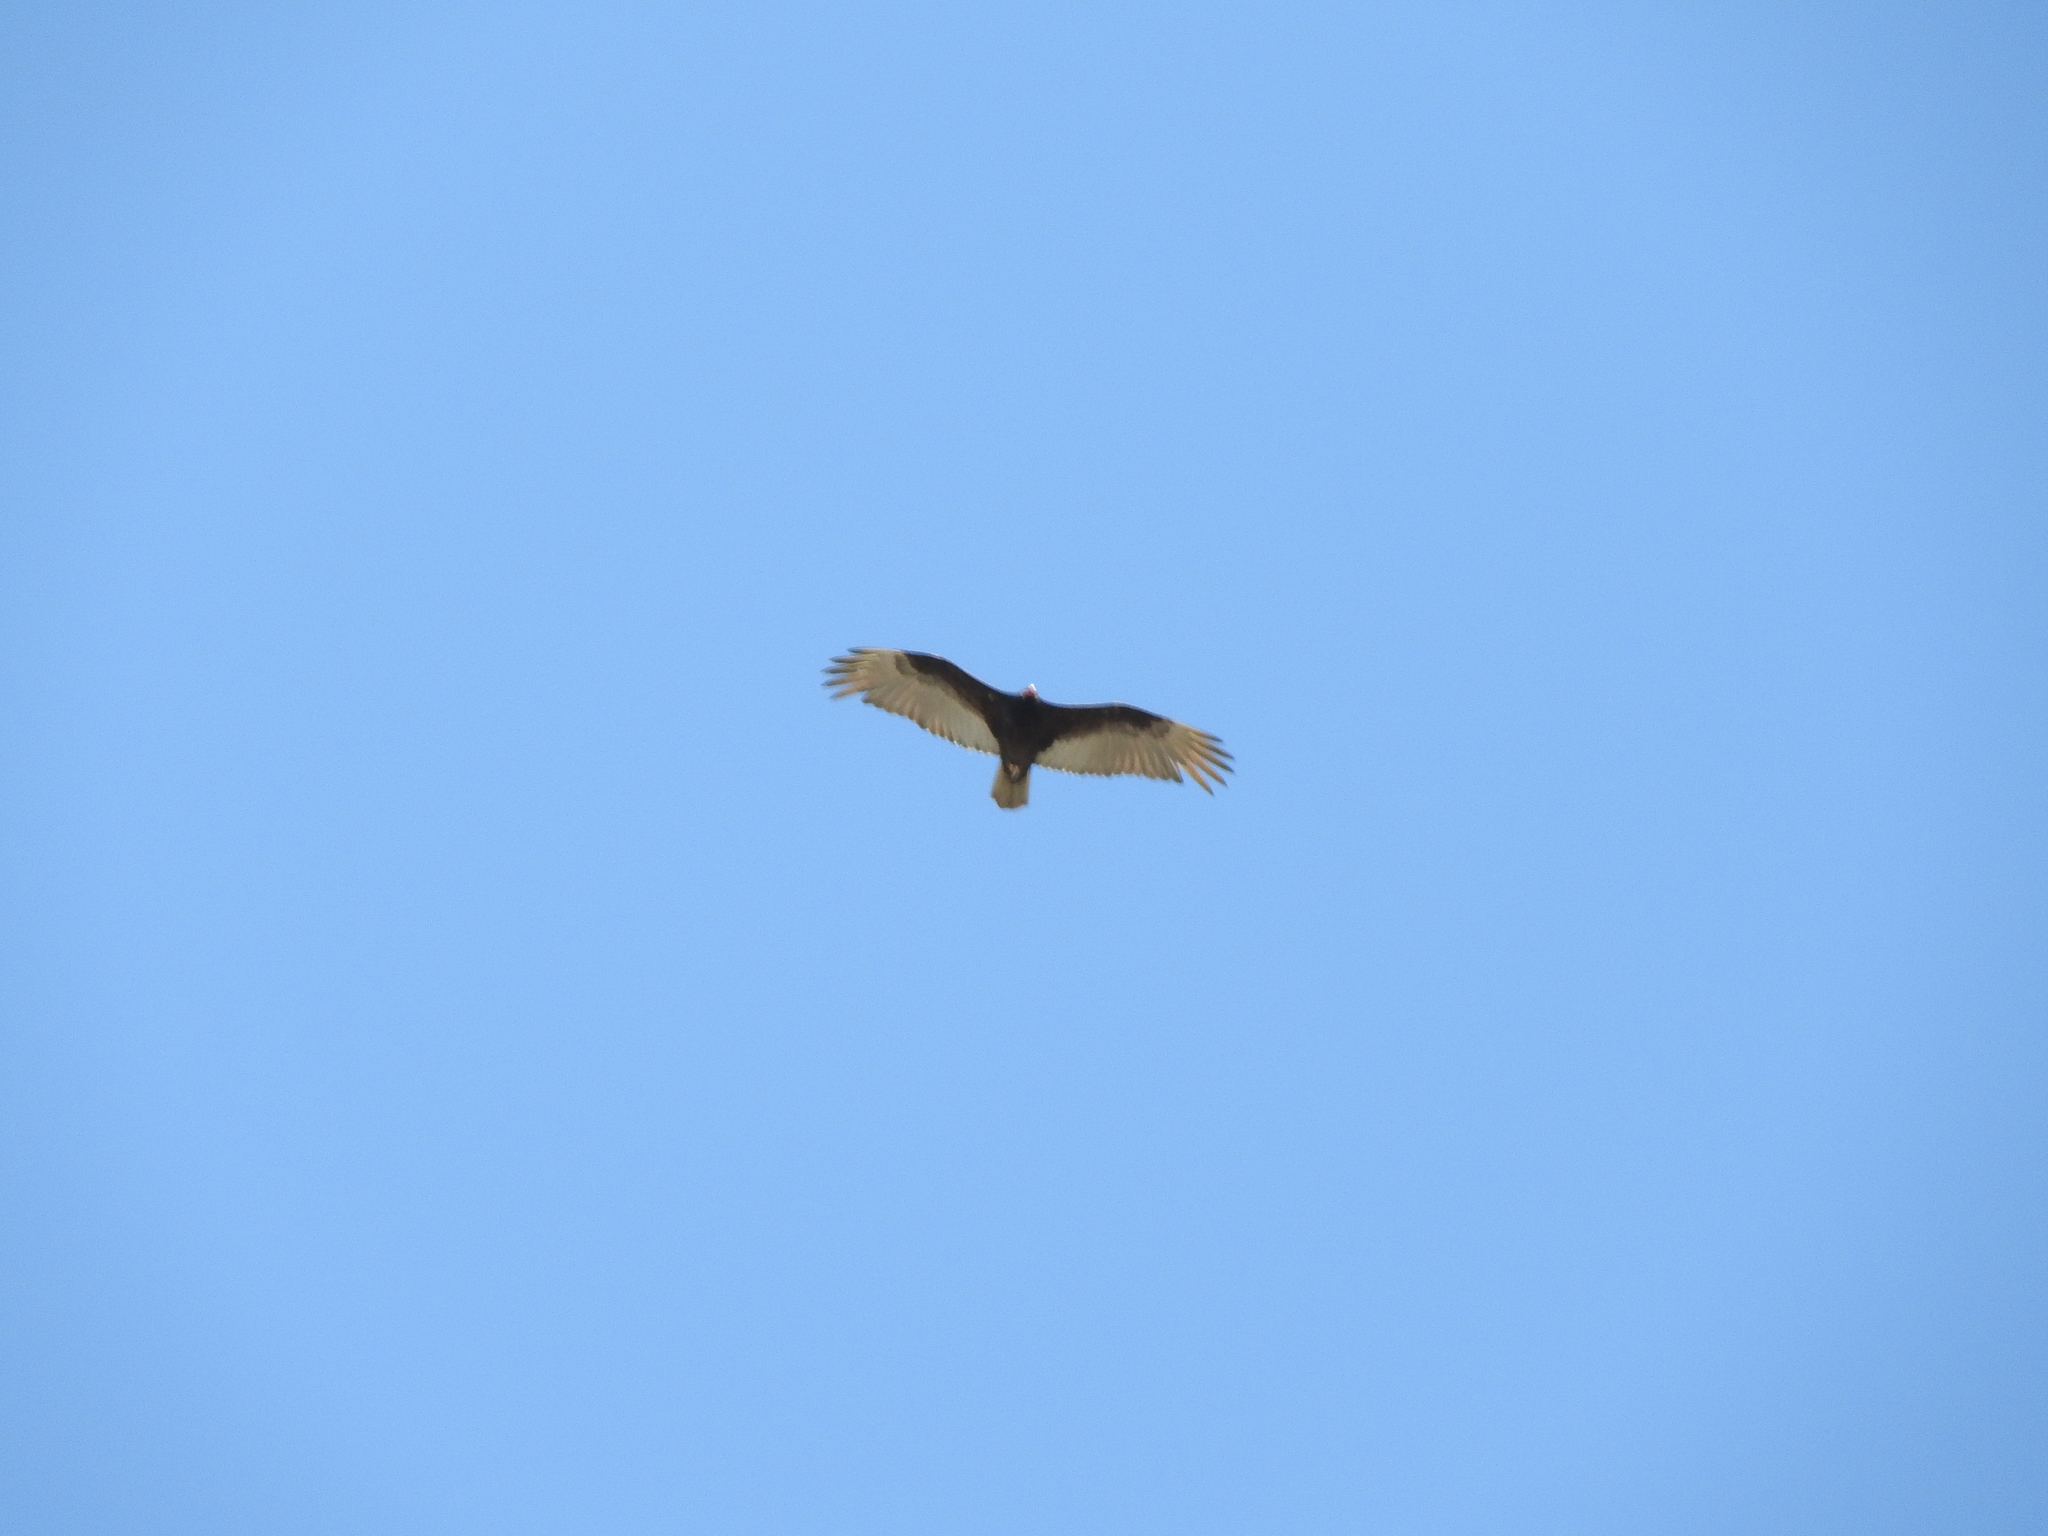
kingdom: Animalia
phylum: Chordata
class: Aves
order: Accipitriformes
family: Cathartidae
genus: Cathartes
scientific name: Cathartes aura
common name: Turkey vulture
